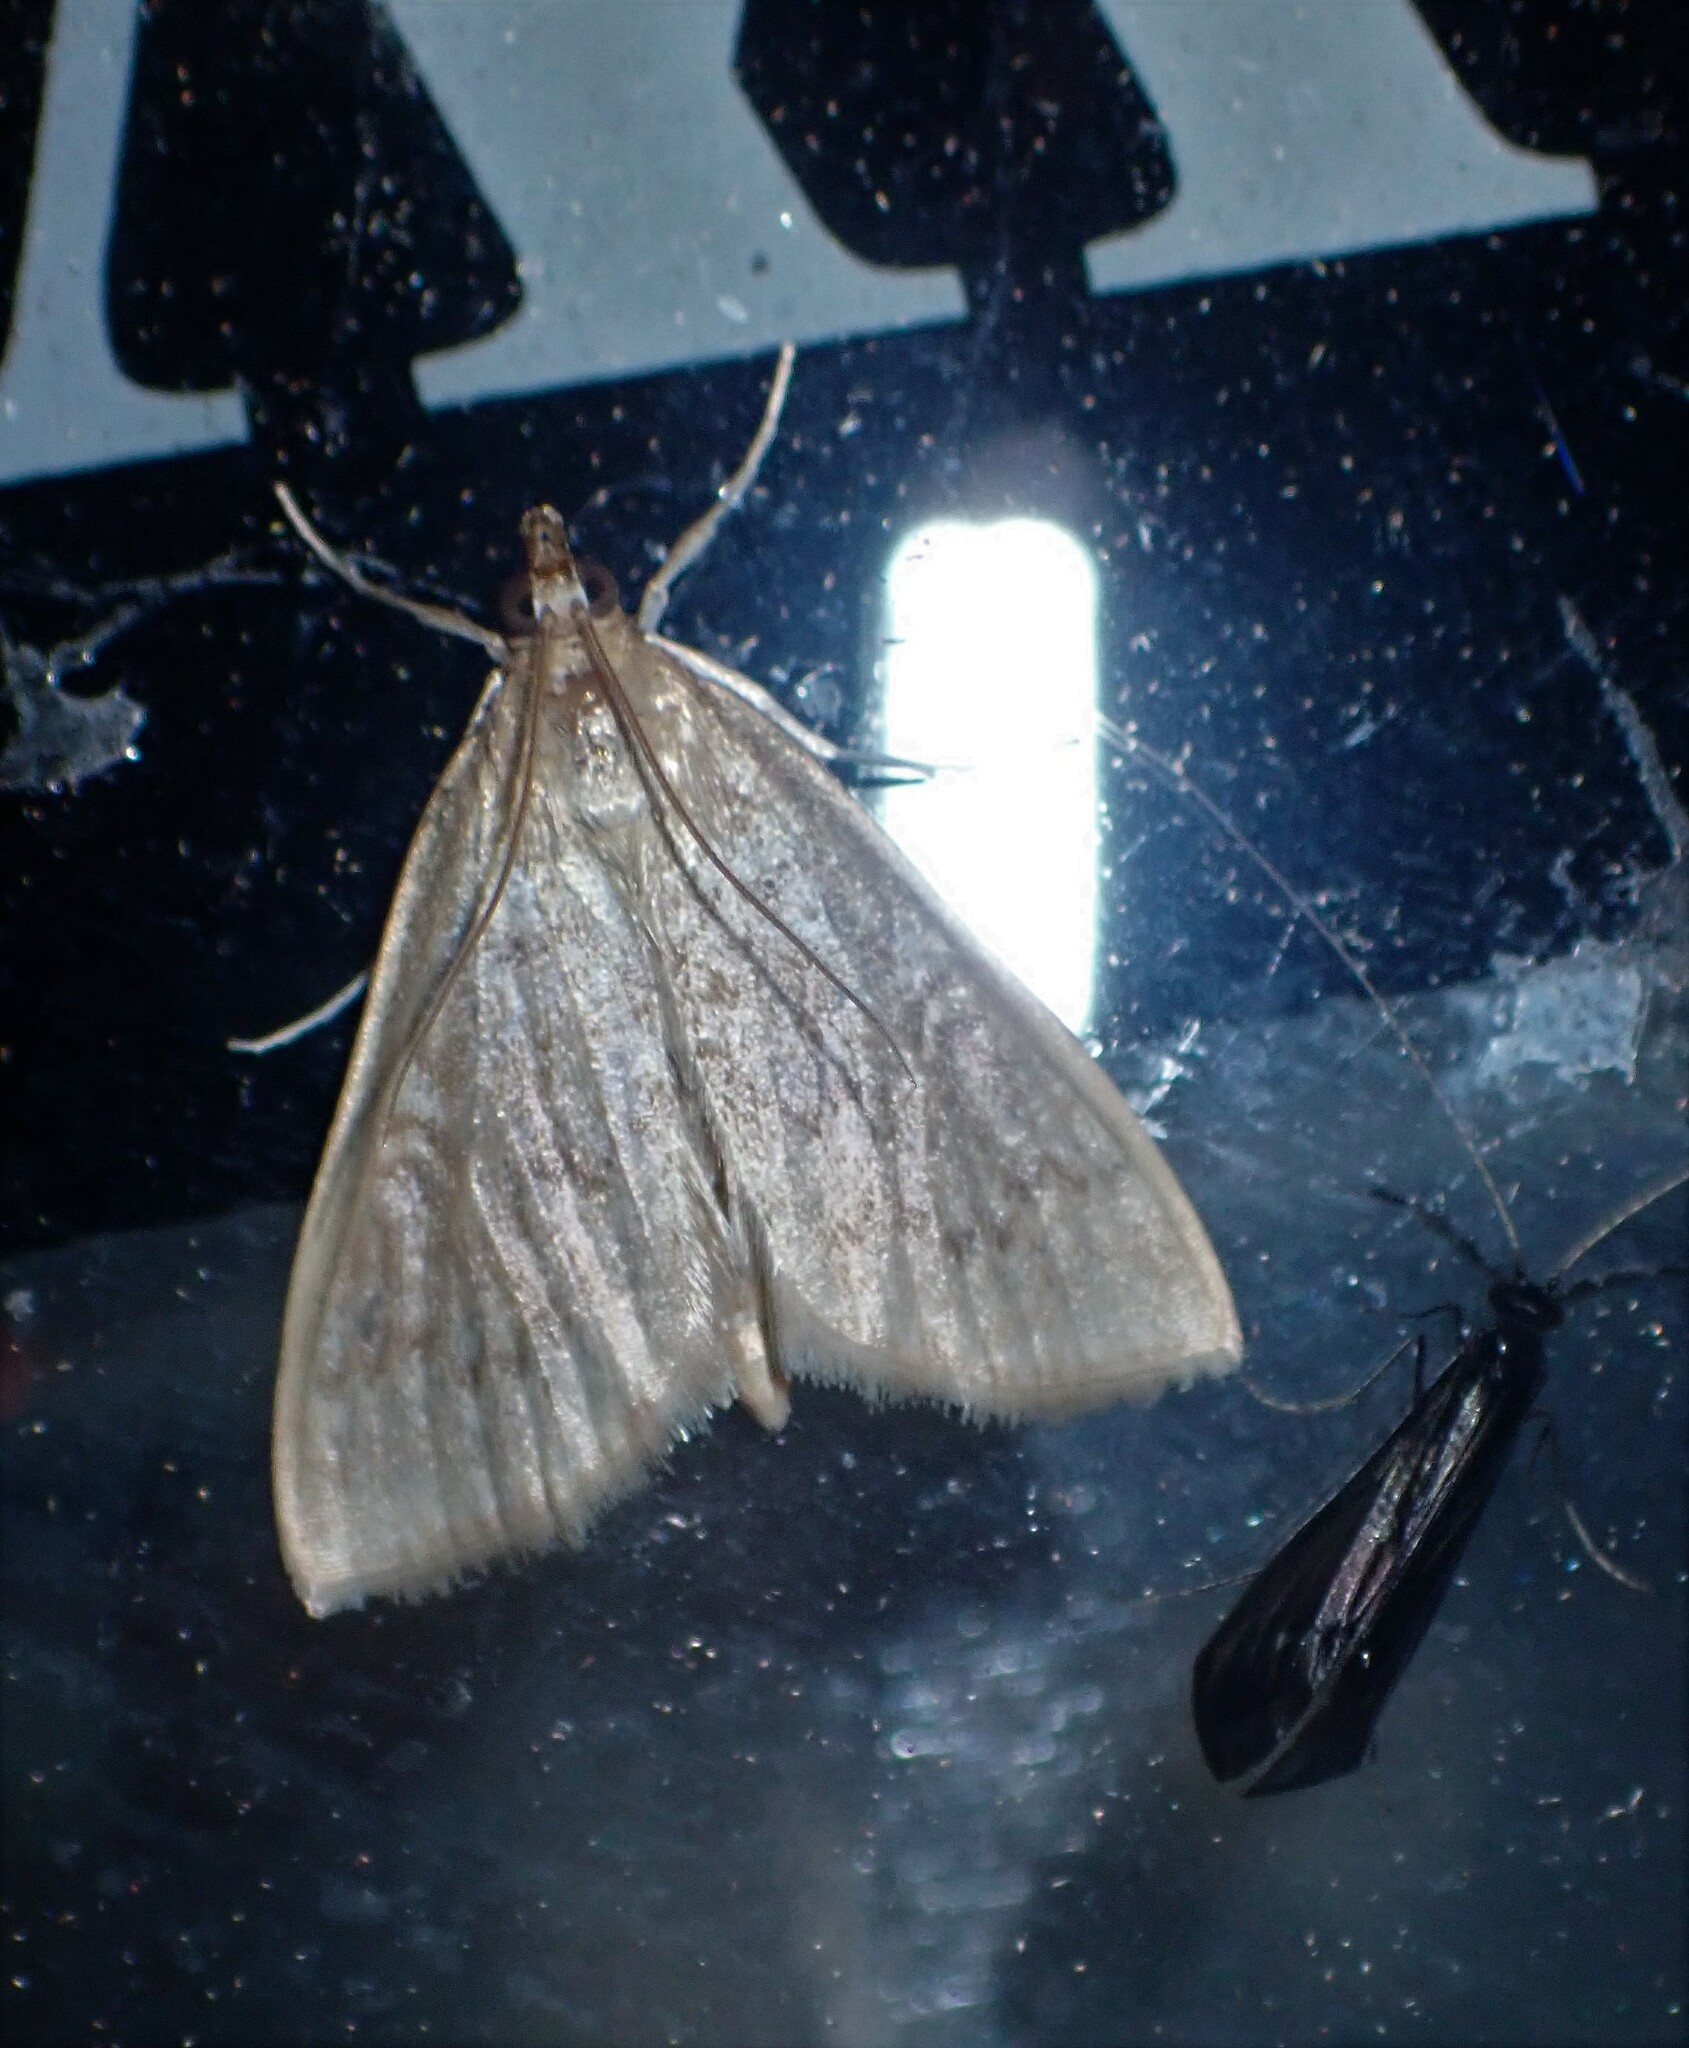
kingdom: Animalia
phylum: Arthropoda
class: Insecta
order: Lepidoptera
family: Crambidae
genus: Anania
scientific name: Anania Framinghamia helvalis
